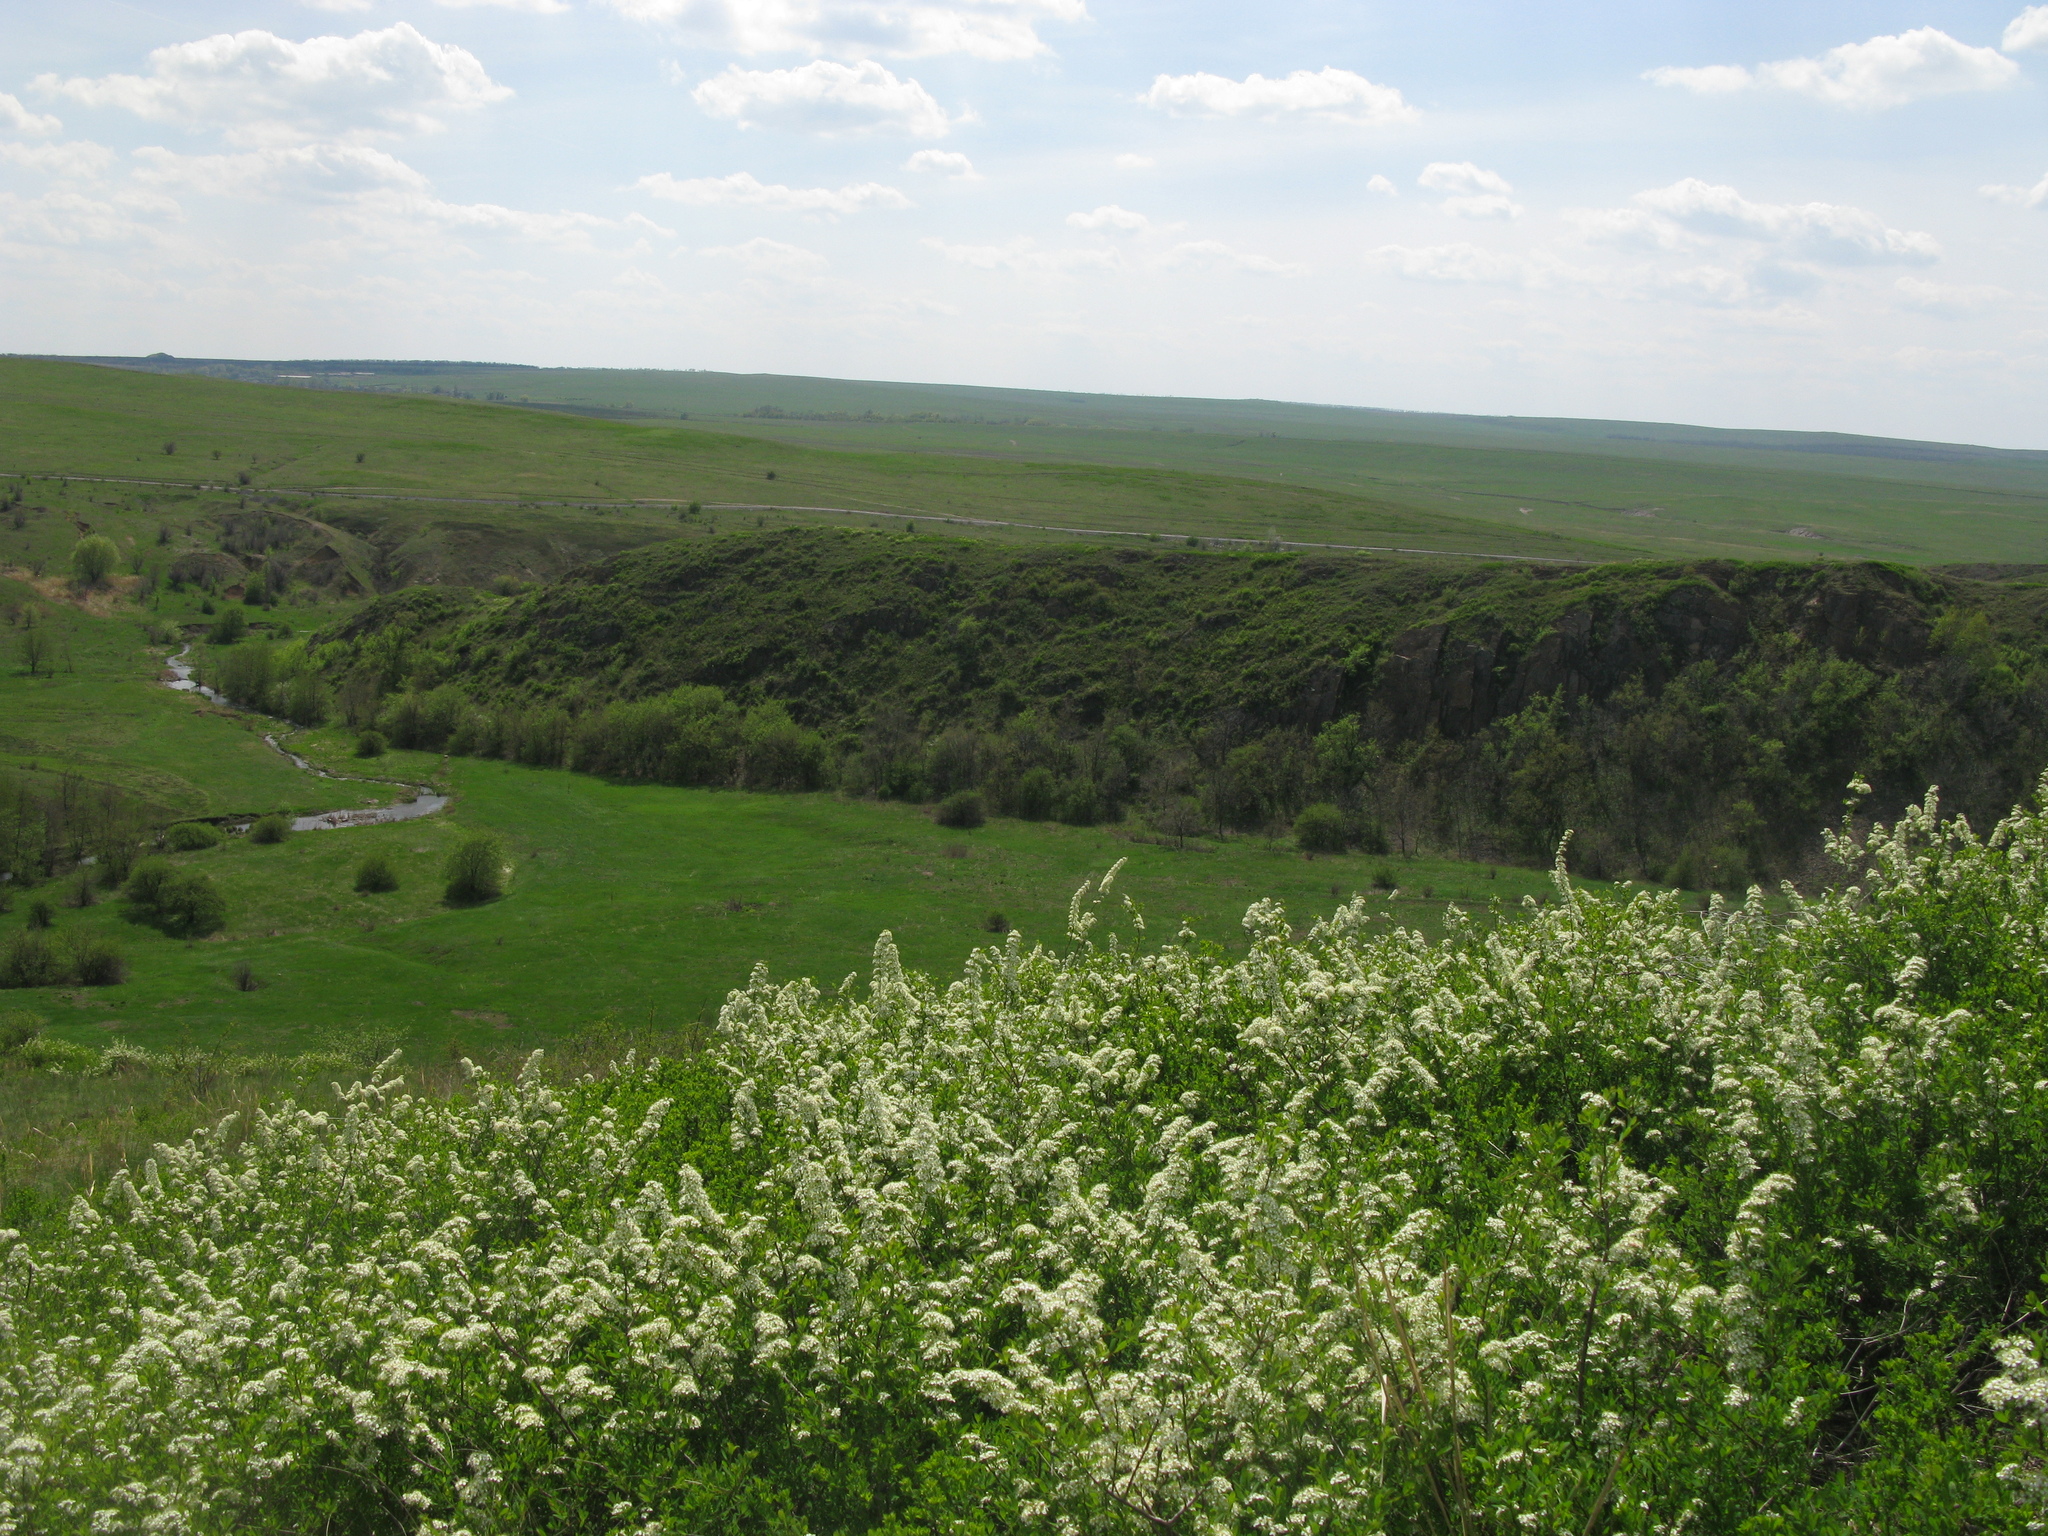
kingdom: Plantae
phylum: Tracheophyta
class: Magnoliopsida
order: Rosales
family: Rosaceae
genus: Spiraea
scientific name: Spiraea hypericifolia
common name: Iberian spirea
